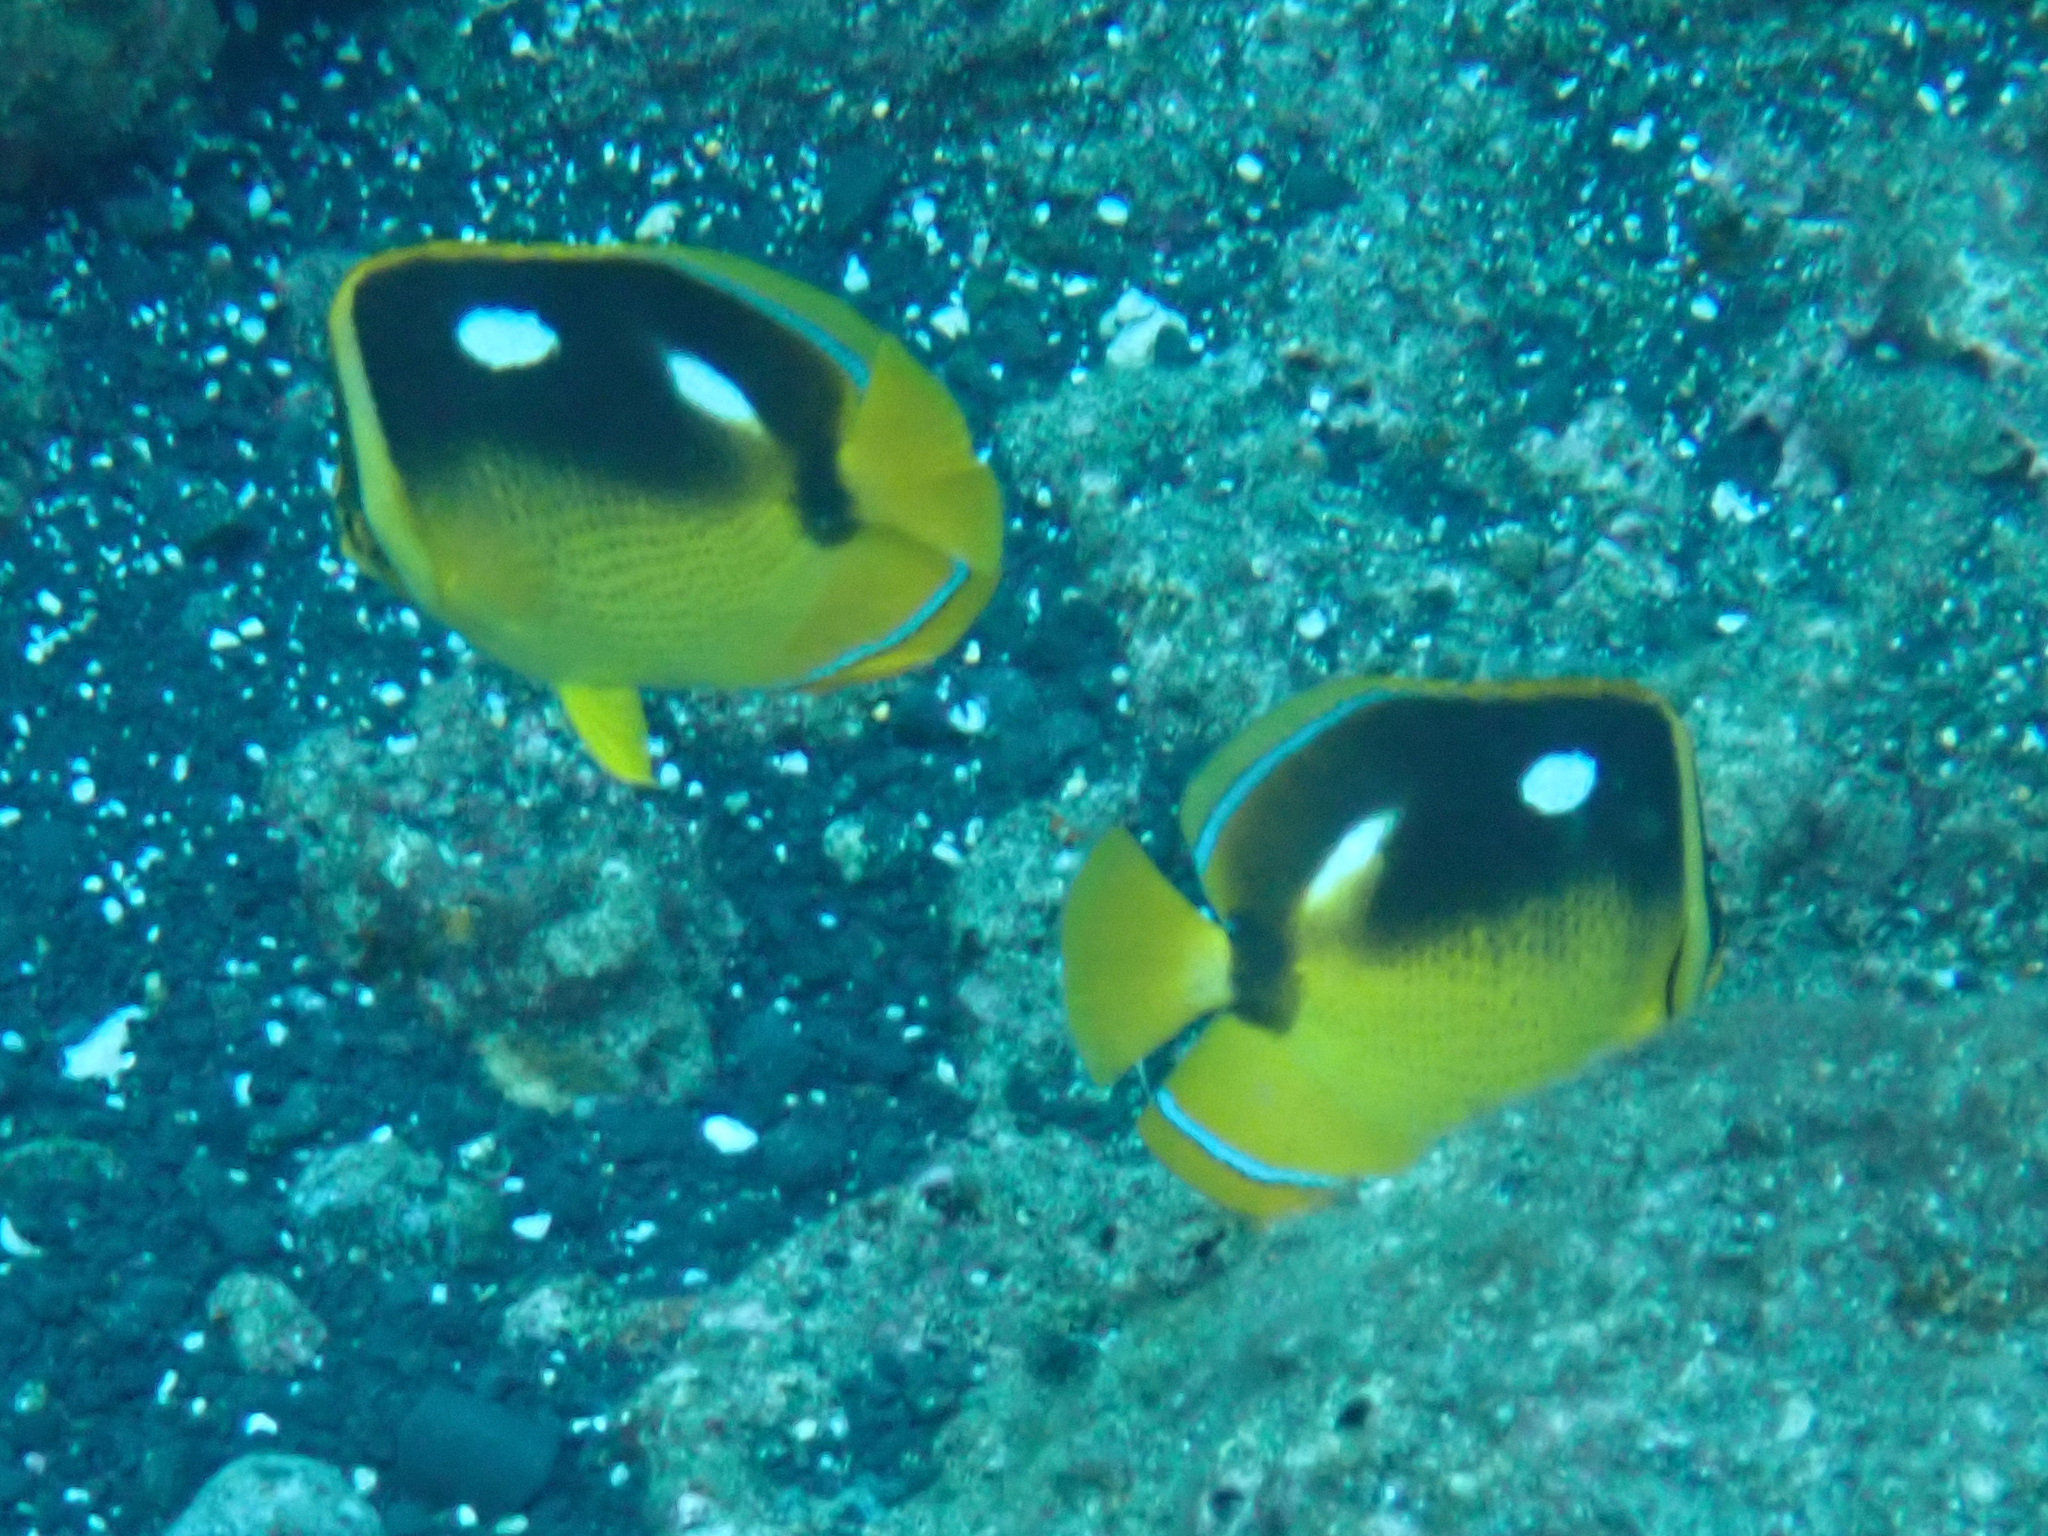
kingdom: Animalia
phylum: Chordata
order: Perciformes
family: Chaetodontidae
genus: Chaetodon
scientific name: Chaetodon quadrimaculatus
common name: Fourspot butterflyfish
